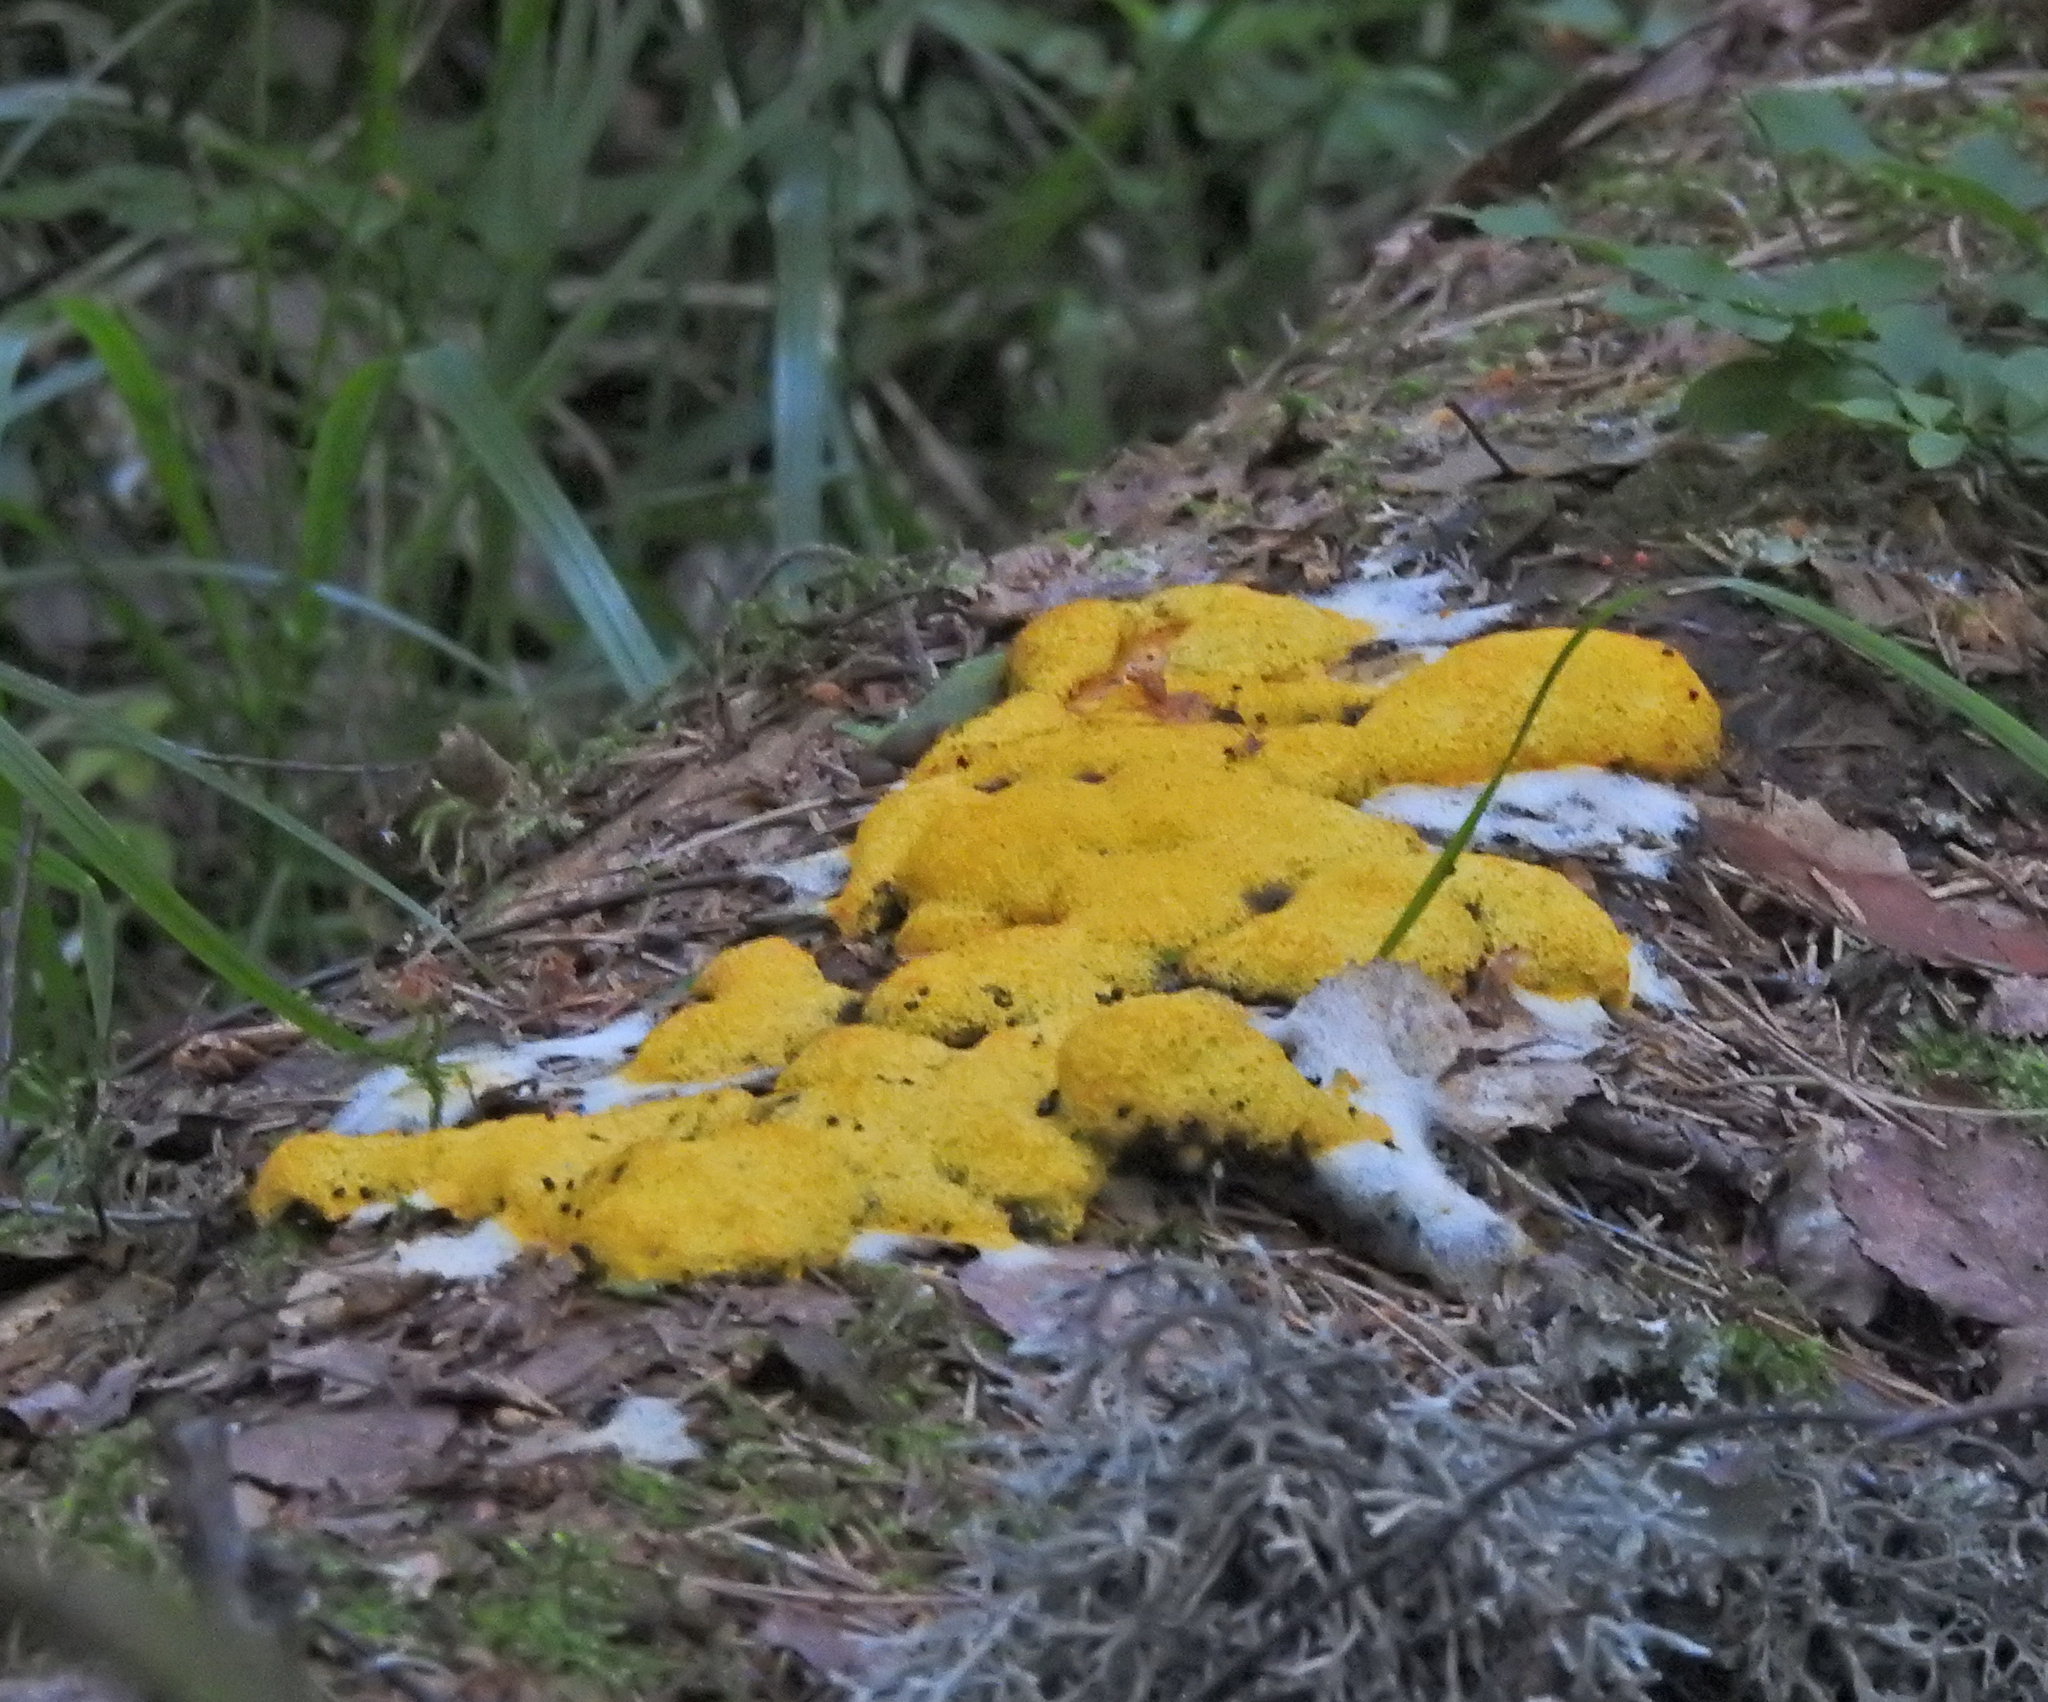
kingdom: Protozoa
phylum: Mycetozoa
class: Myxomycetes
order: Physarales
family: Physaraceae
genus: Fuligo
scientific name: Fuligo septica
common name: Dog vomit slime mold
